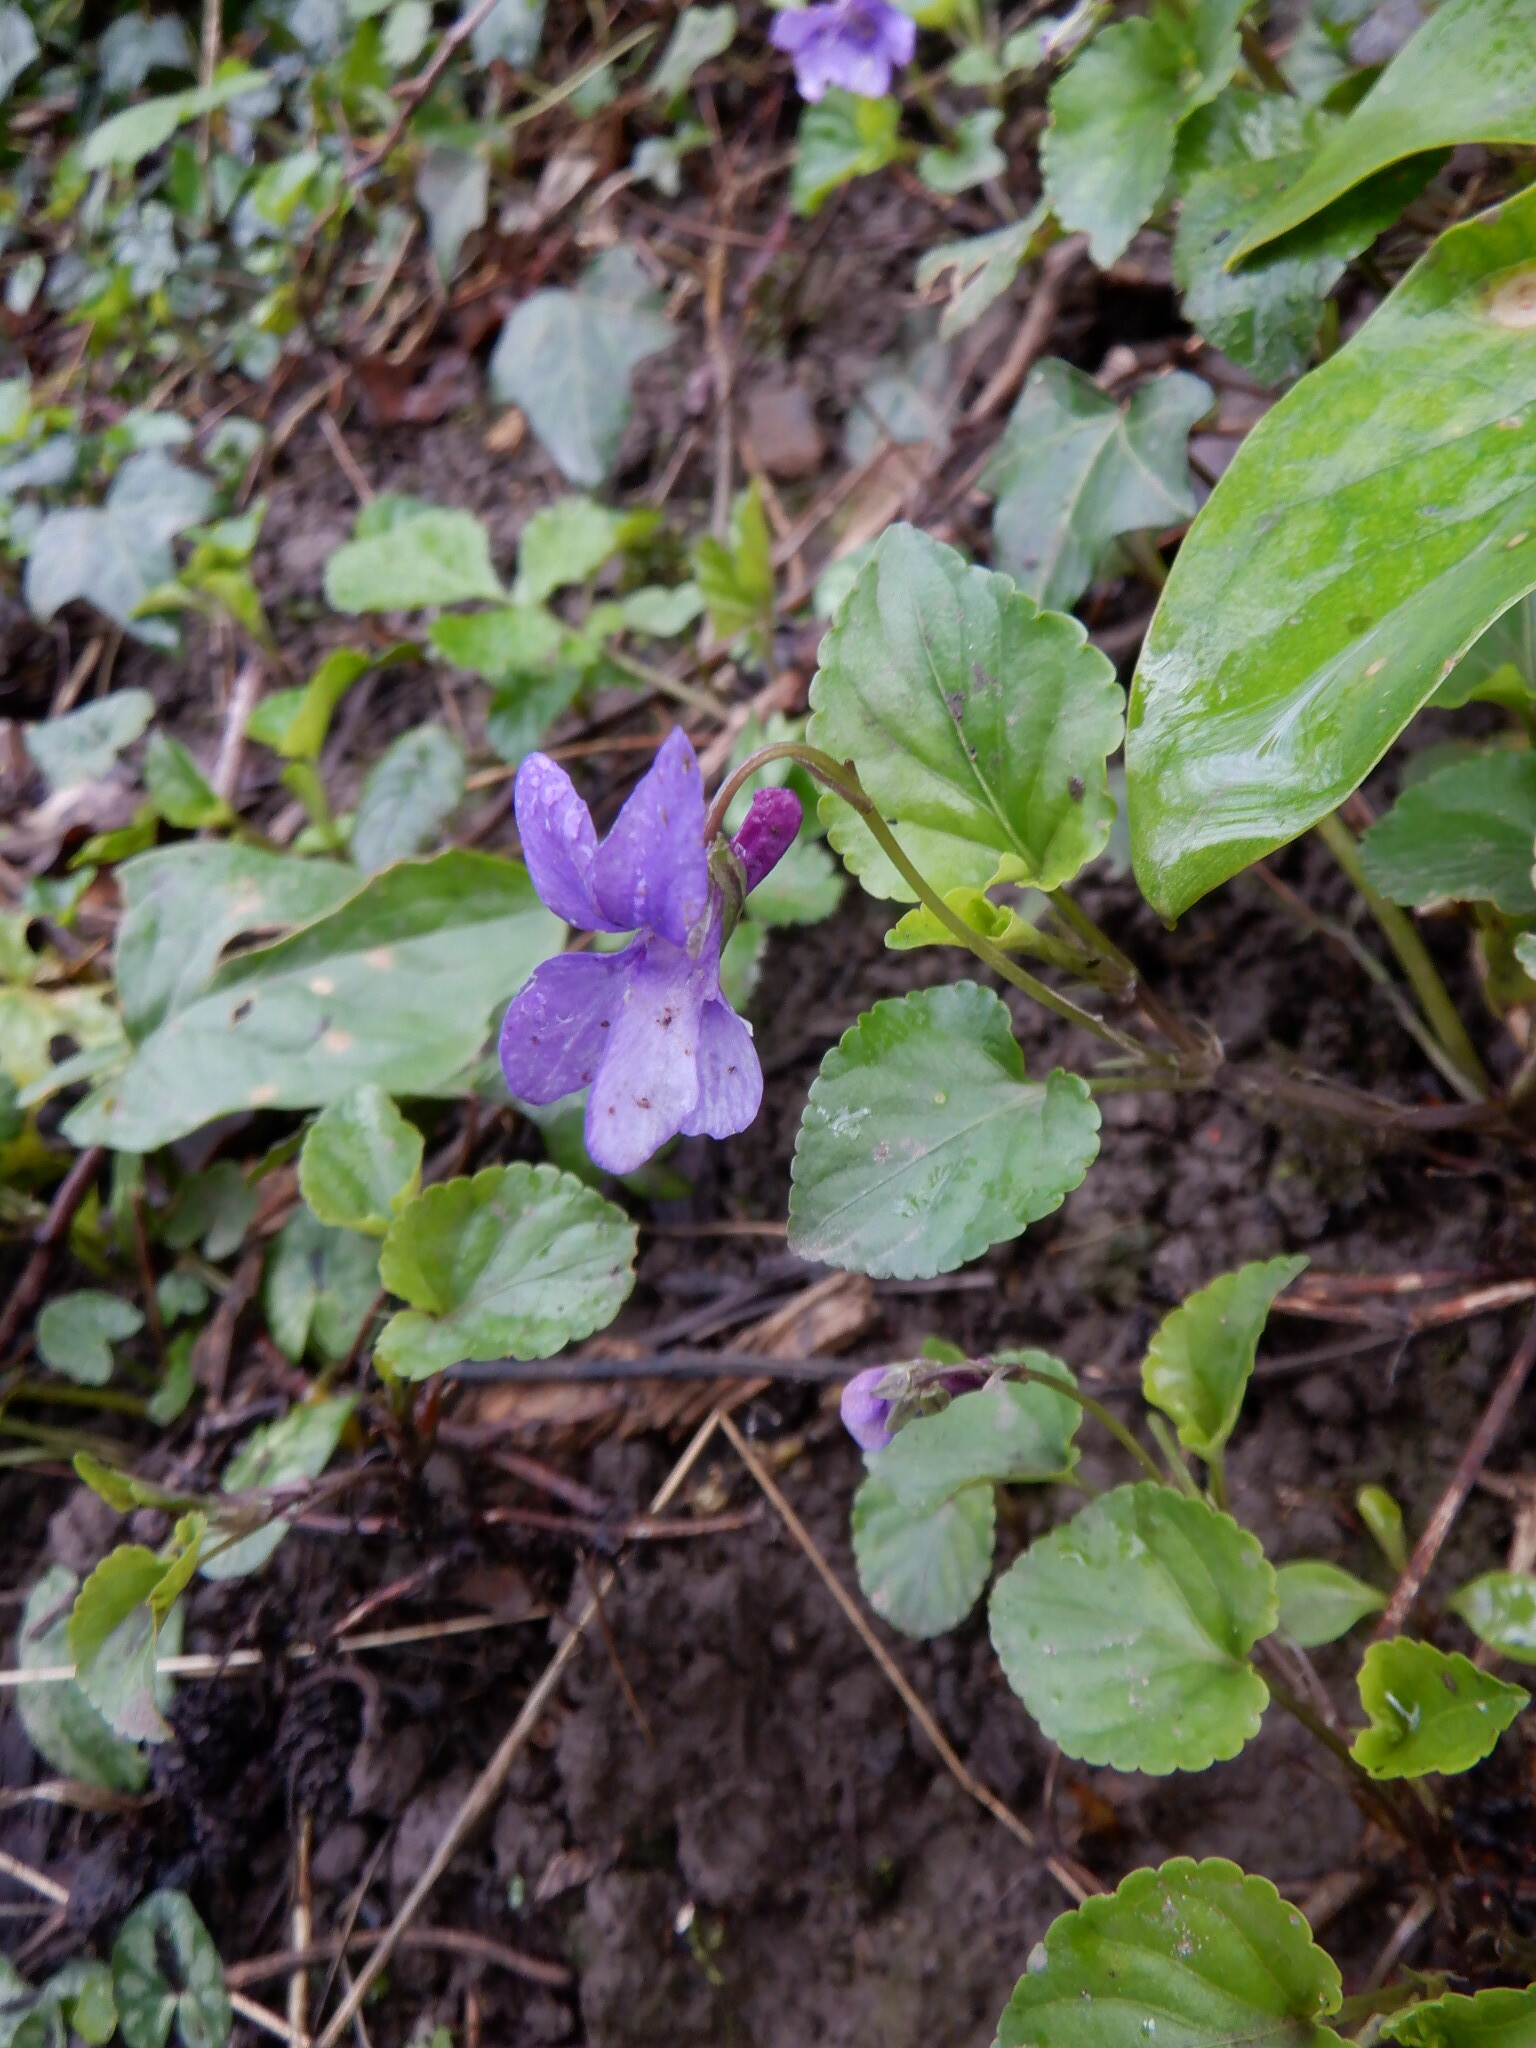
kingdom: Plantae
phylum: Tracheophyta
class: Magnoliopsida
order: Malpighiales
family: Violaceae
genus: Viola
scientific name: Viola reichenbachiana
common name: Early dog-violet
